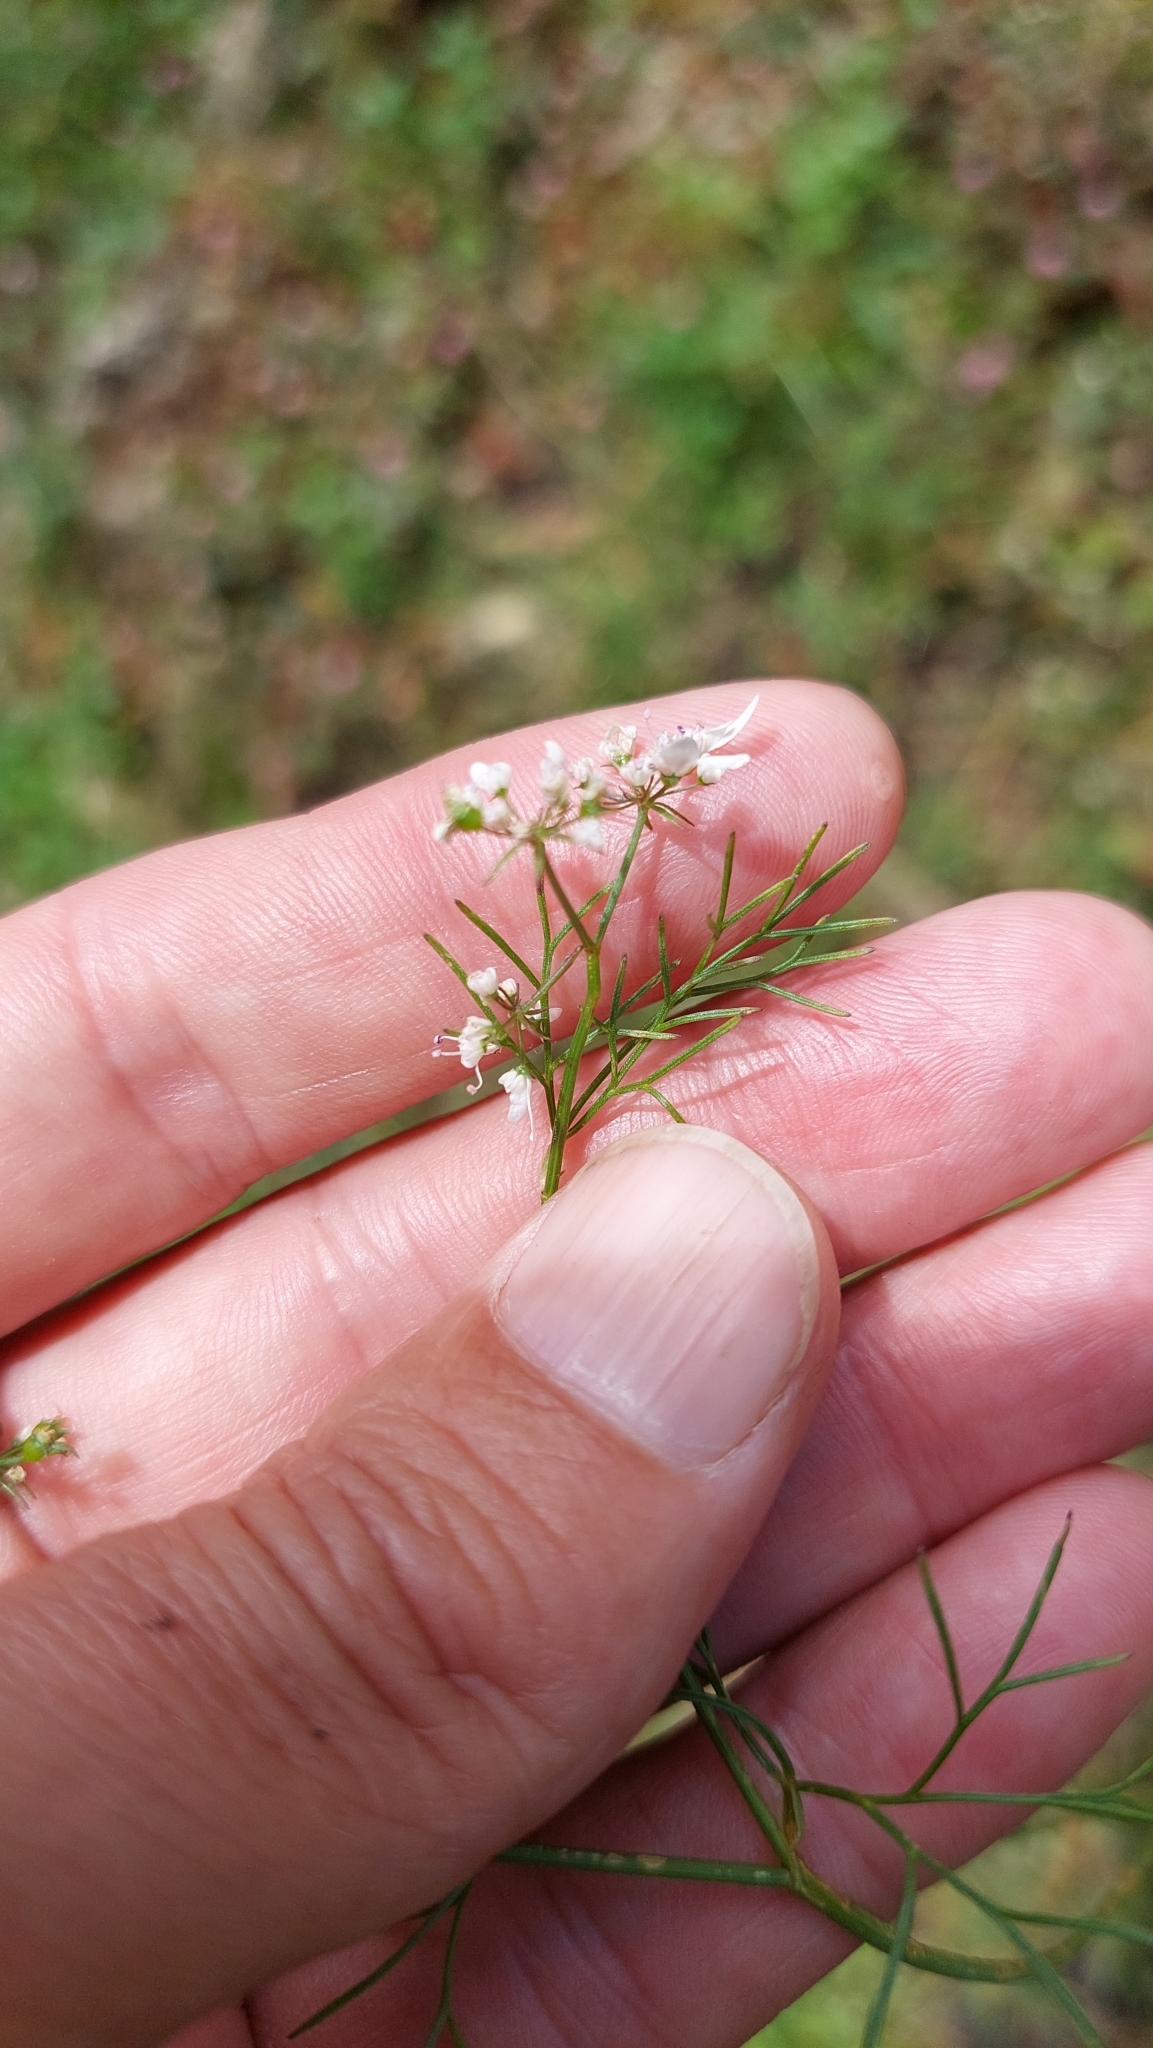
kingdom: Plantae
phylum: Tracheophyta
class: Magnoliopsida
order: Apiales
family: Apiaceae
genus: Coriandrum
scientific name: Coriandrum sativum
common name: Coriander
